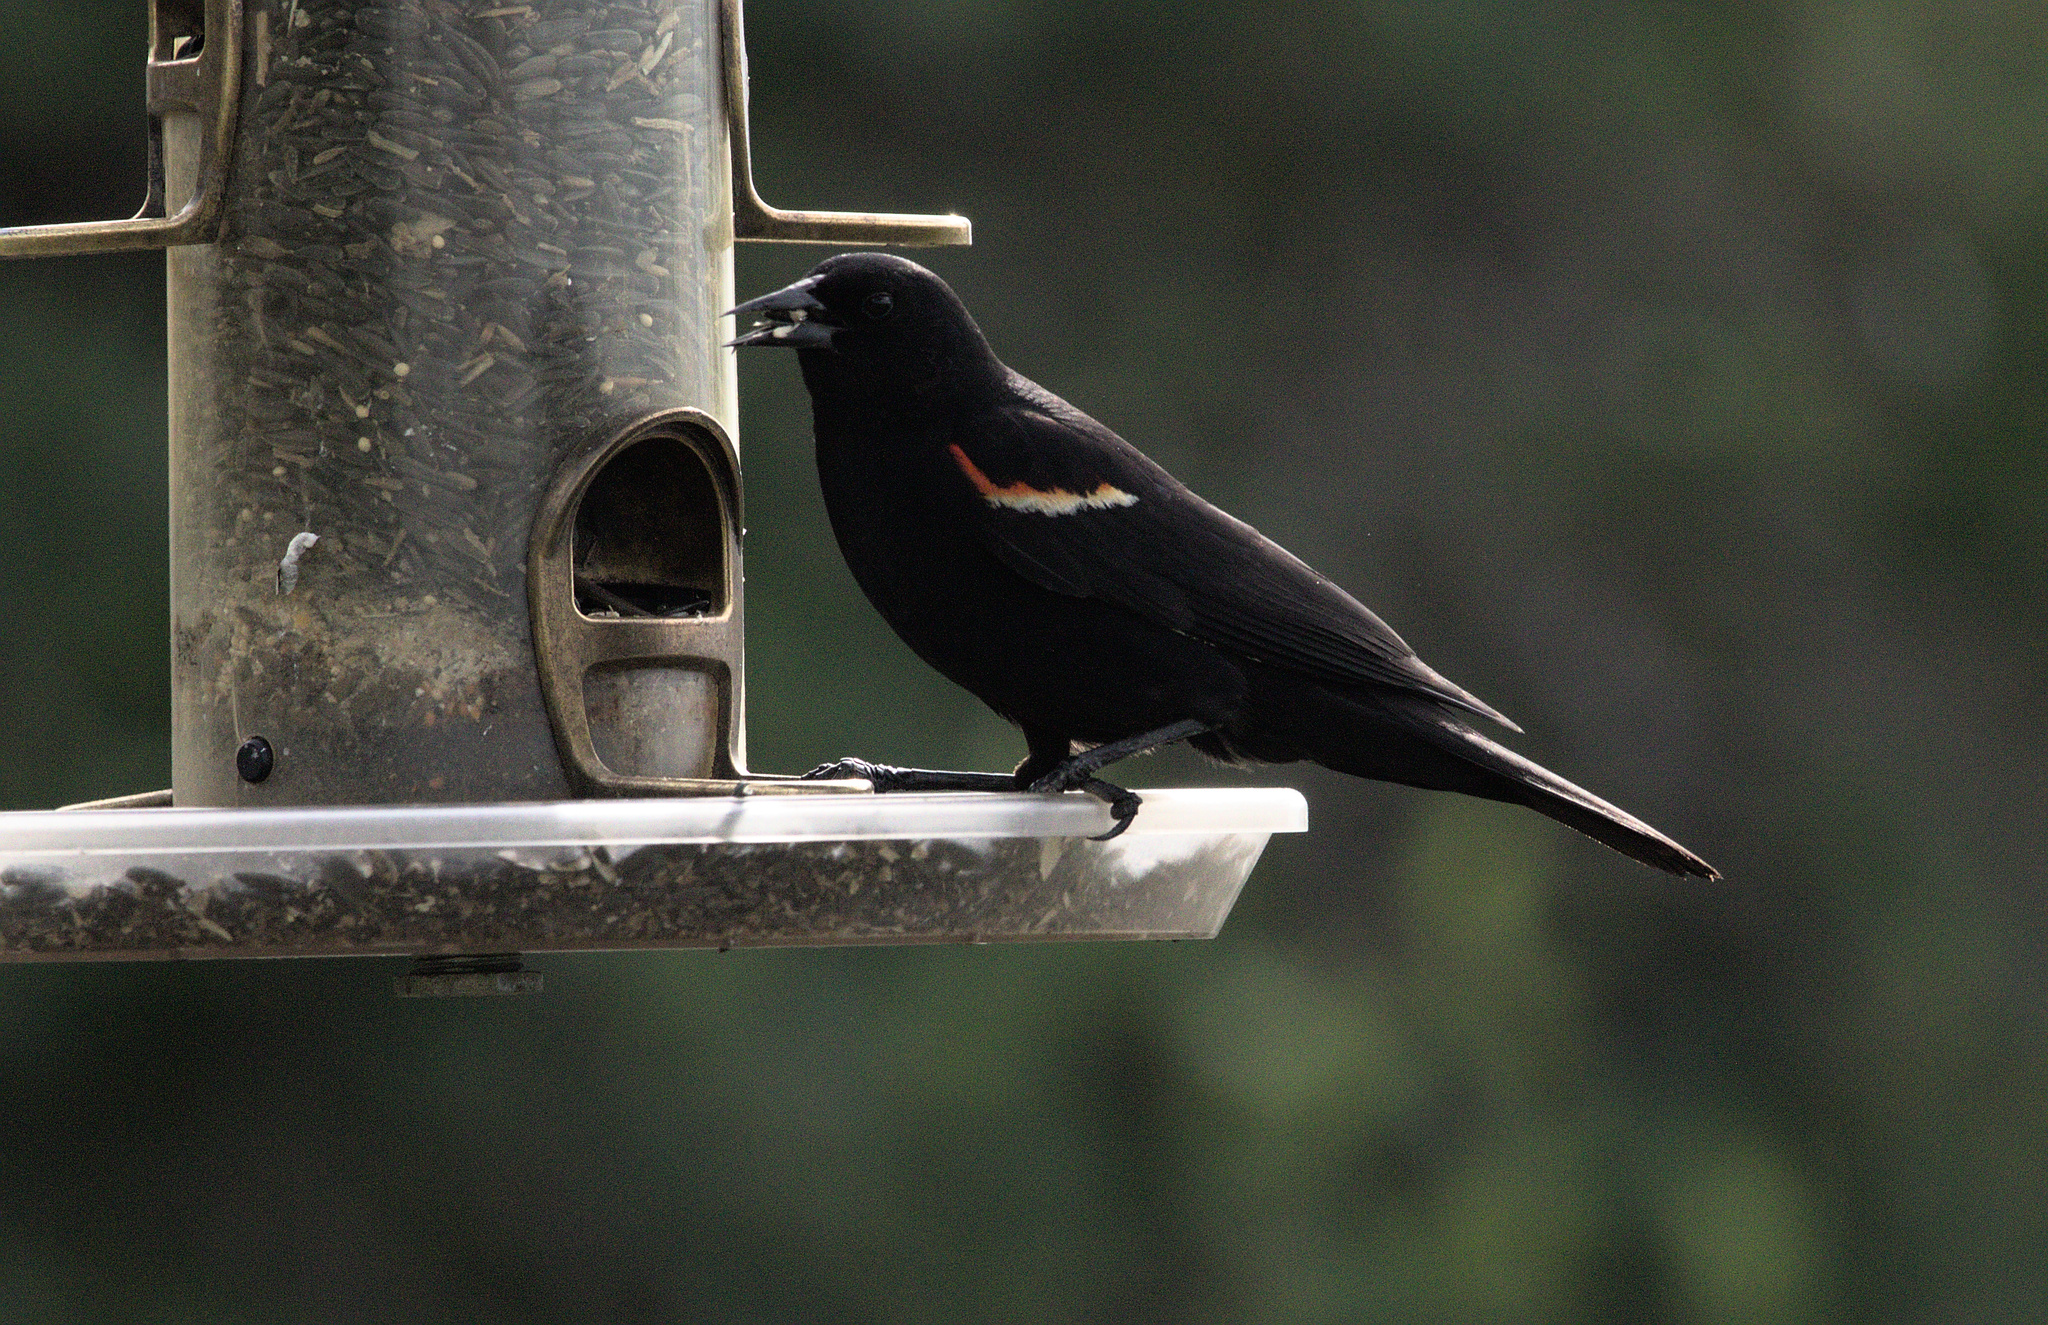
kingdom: Animalia
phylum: Chordata
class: Aves
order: Passeriformes
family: Icteridae
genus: Agelaius
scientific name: Agelaius phoeniceus
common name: Red-winged blackbird
